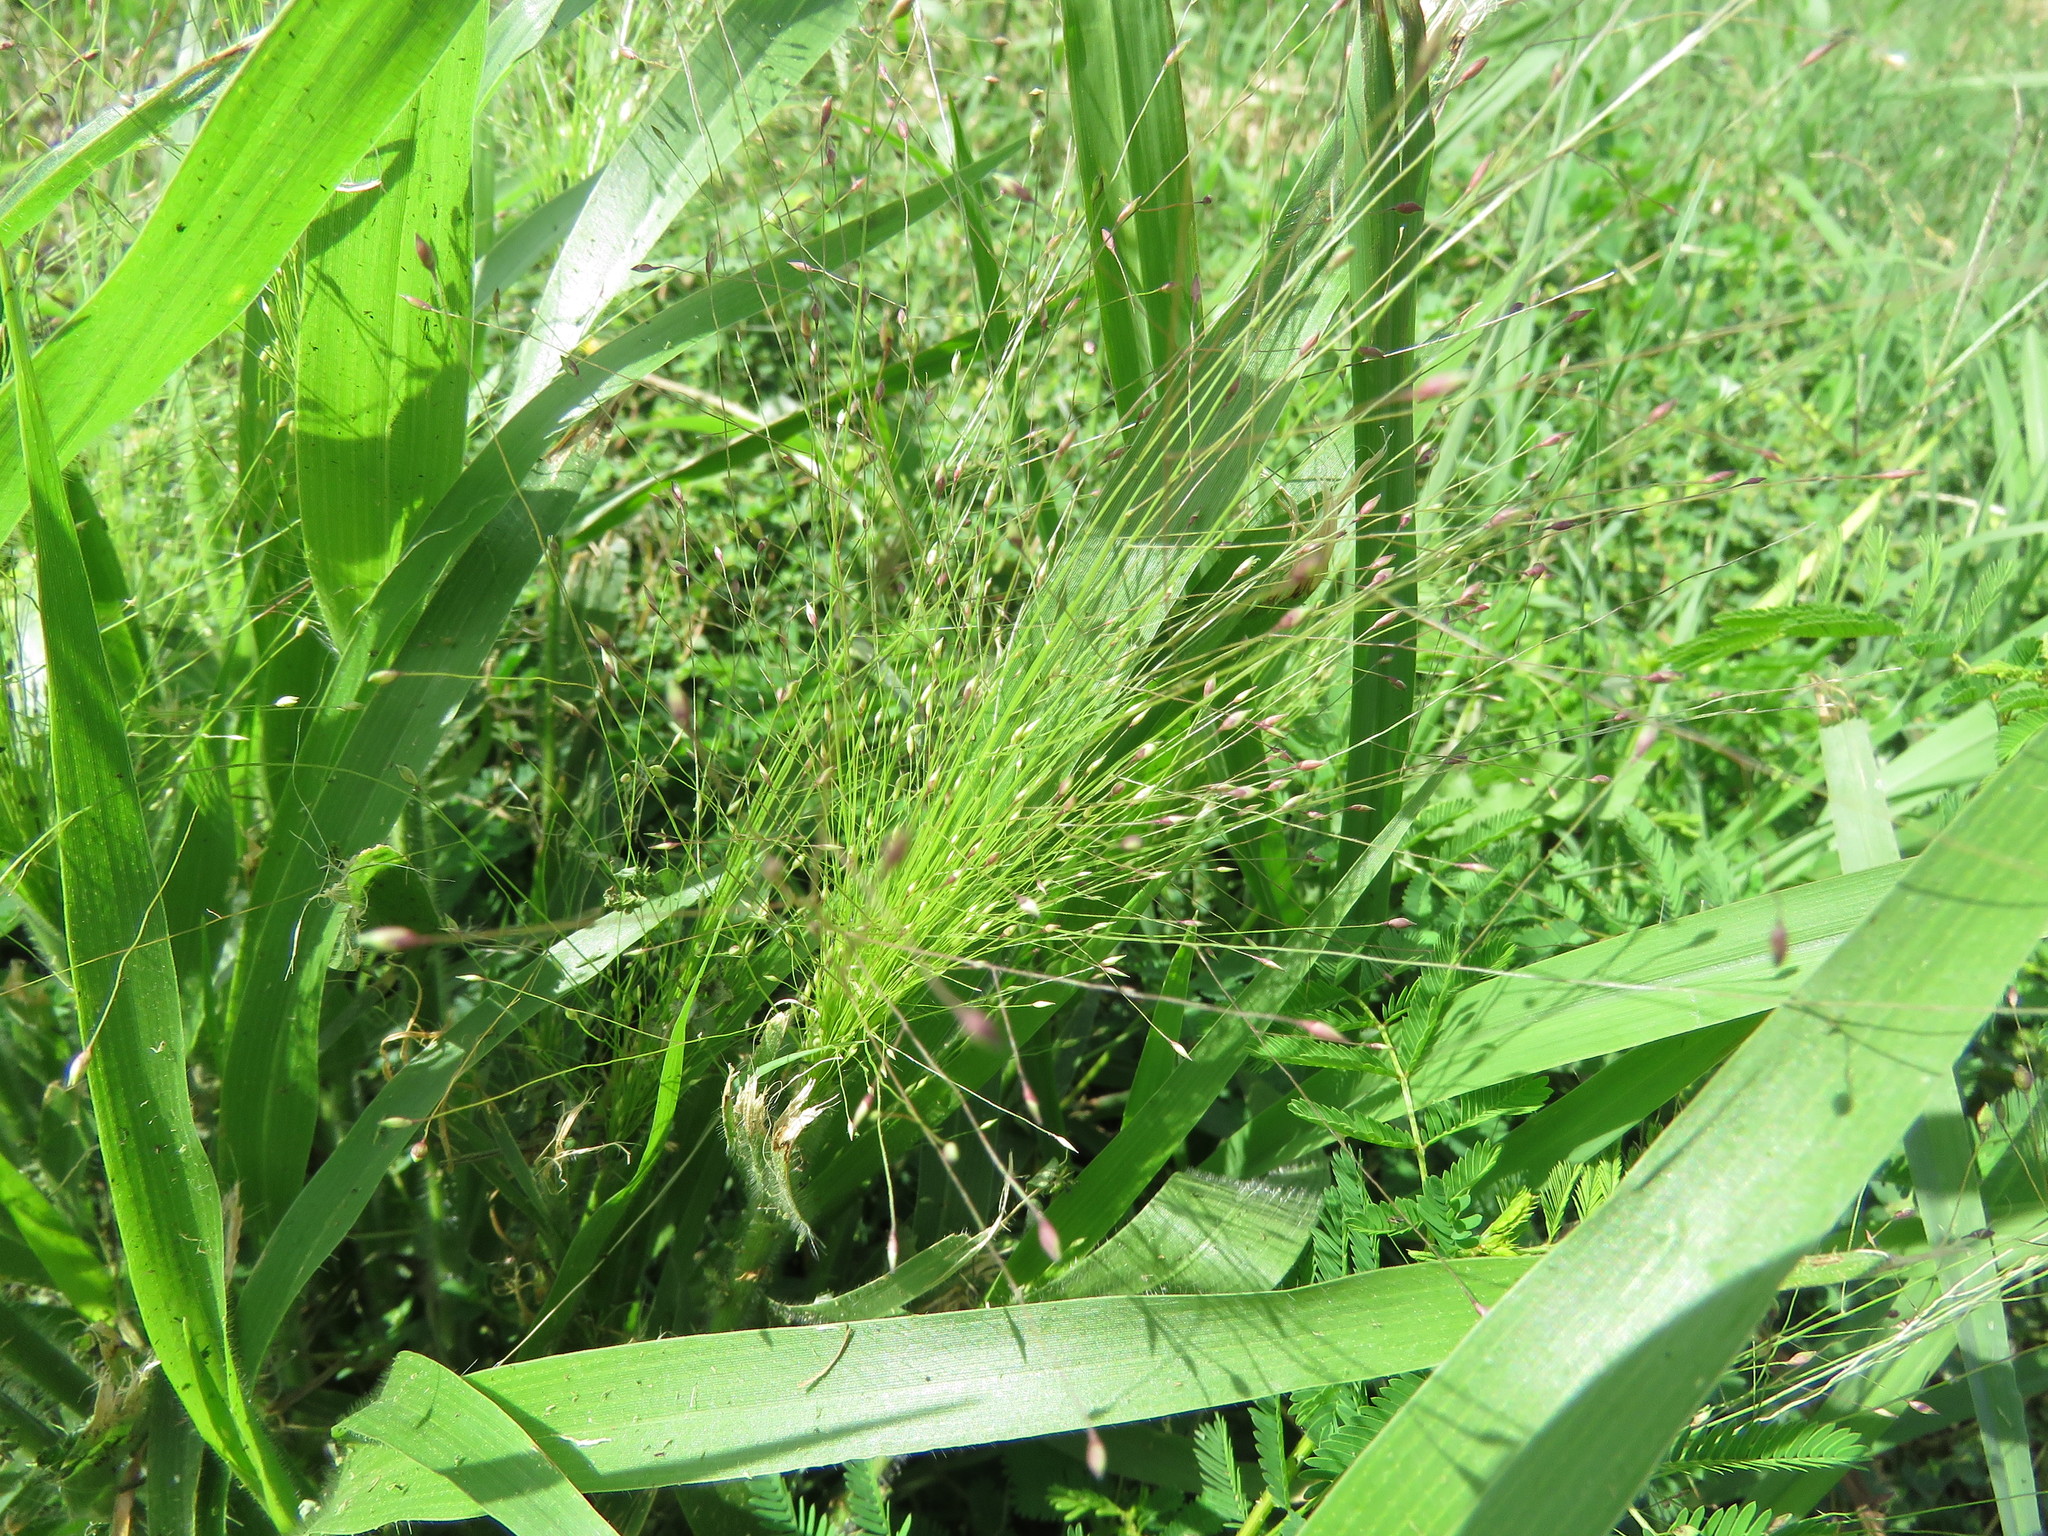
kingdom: Plantae
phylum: Tracheophyta
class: Liliopsida
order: Poales
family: Poaceae
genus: Panicum
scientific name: Panicum capillare
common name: Witch-grass
